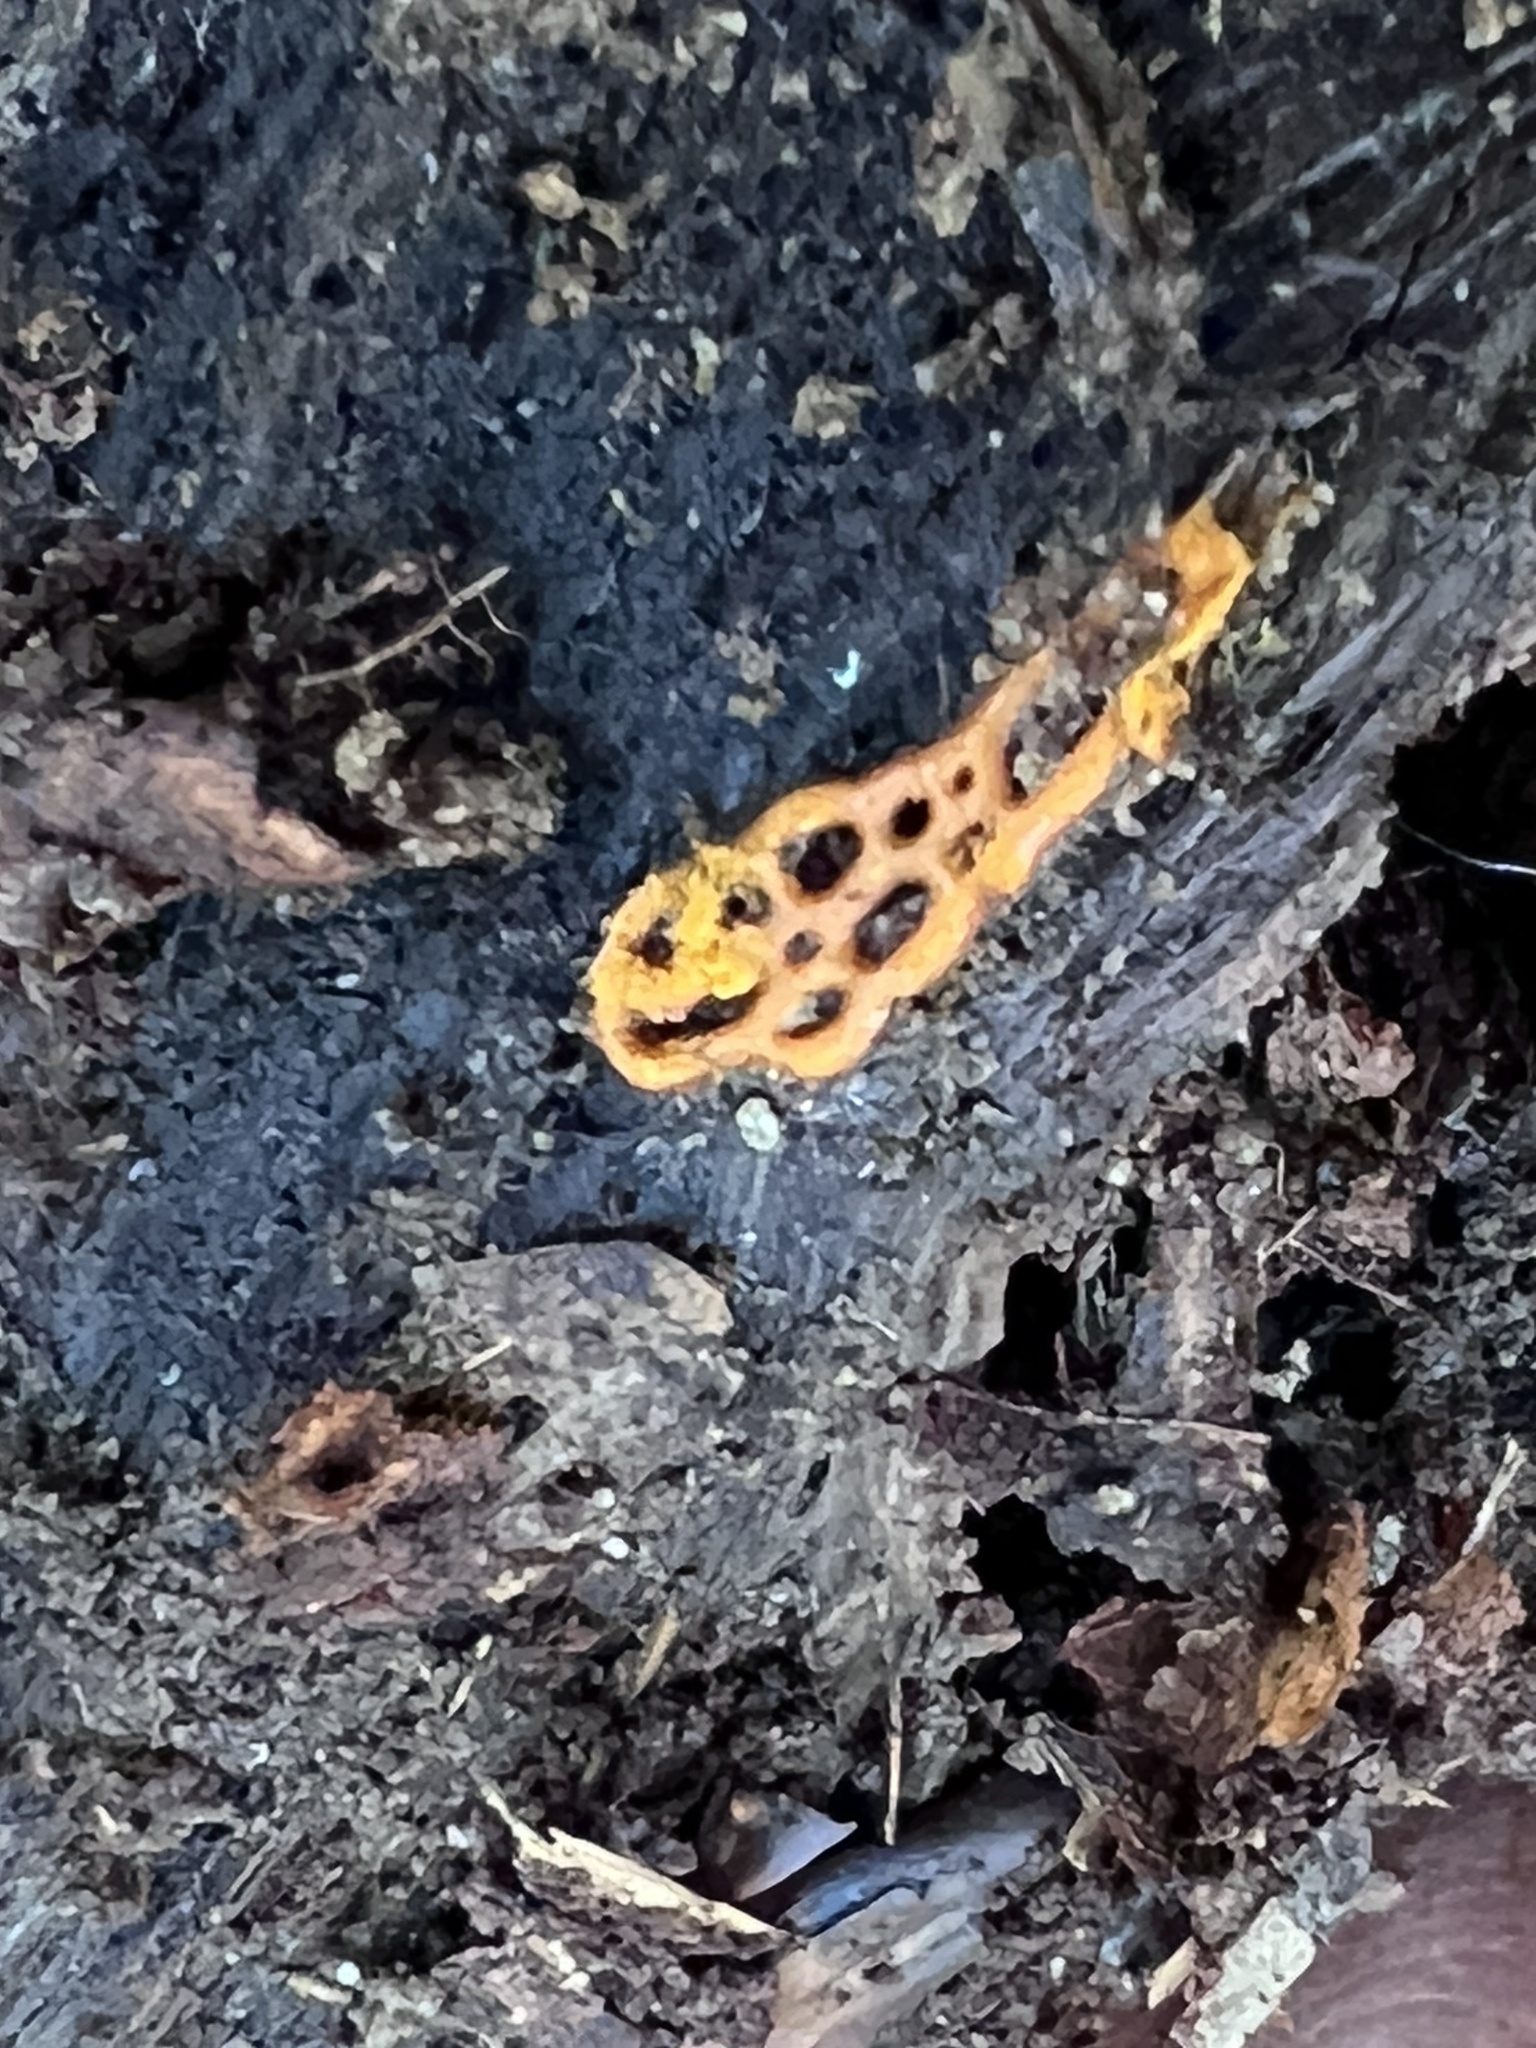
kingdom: Protozoa
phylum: Mycetozoa
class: Myxomycetes
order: Trichiales
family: Arcyriaceae
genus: Hemitrichia
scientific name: Hemitrichia serpula
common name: Pretzel slime mold
